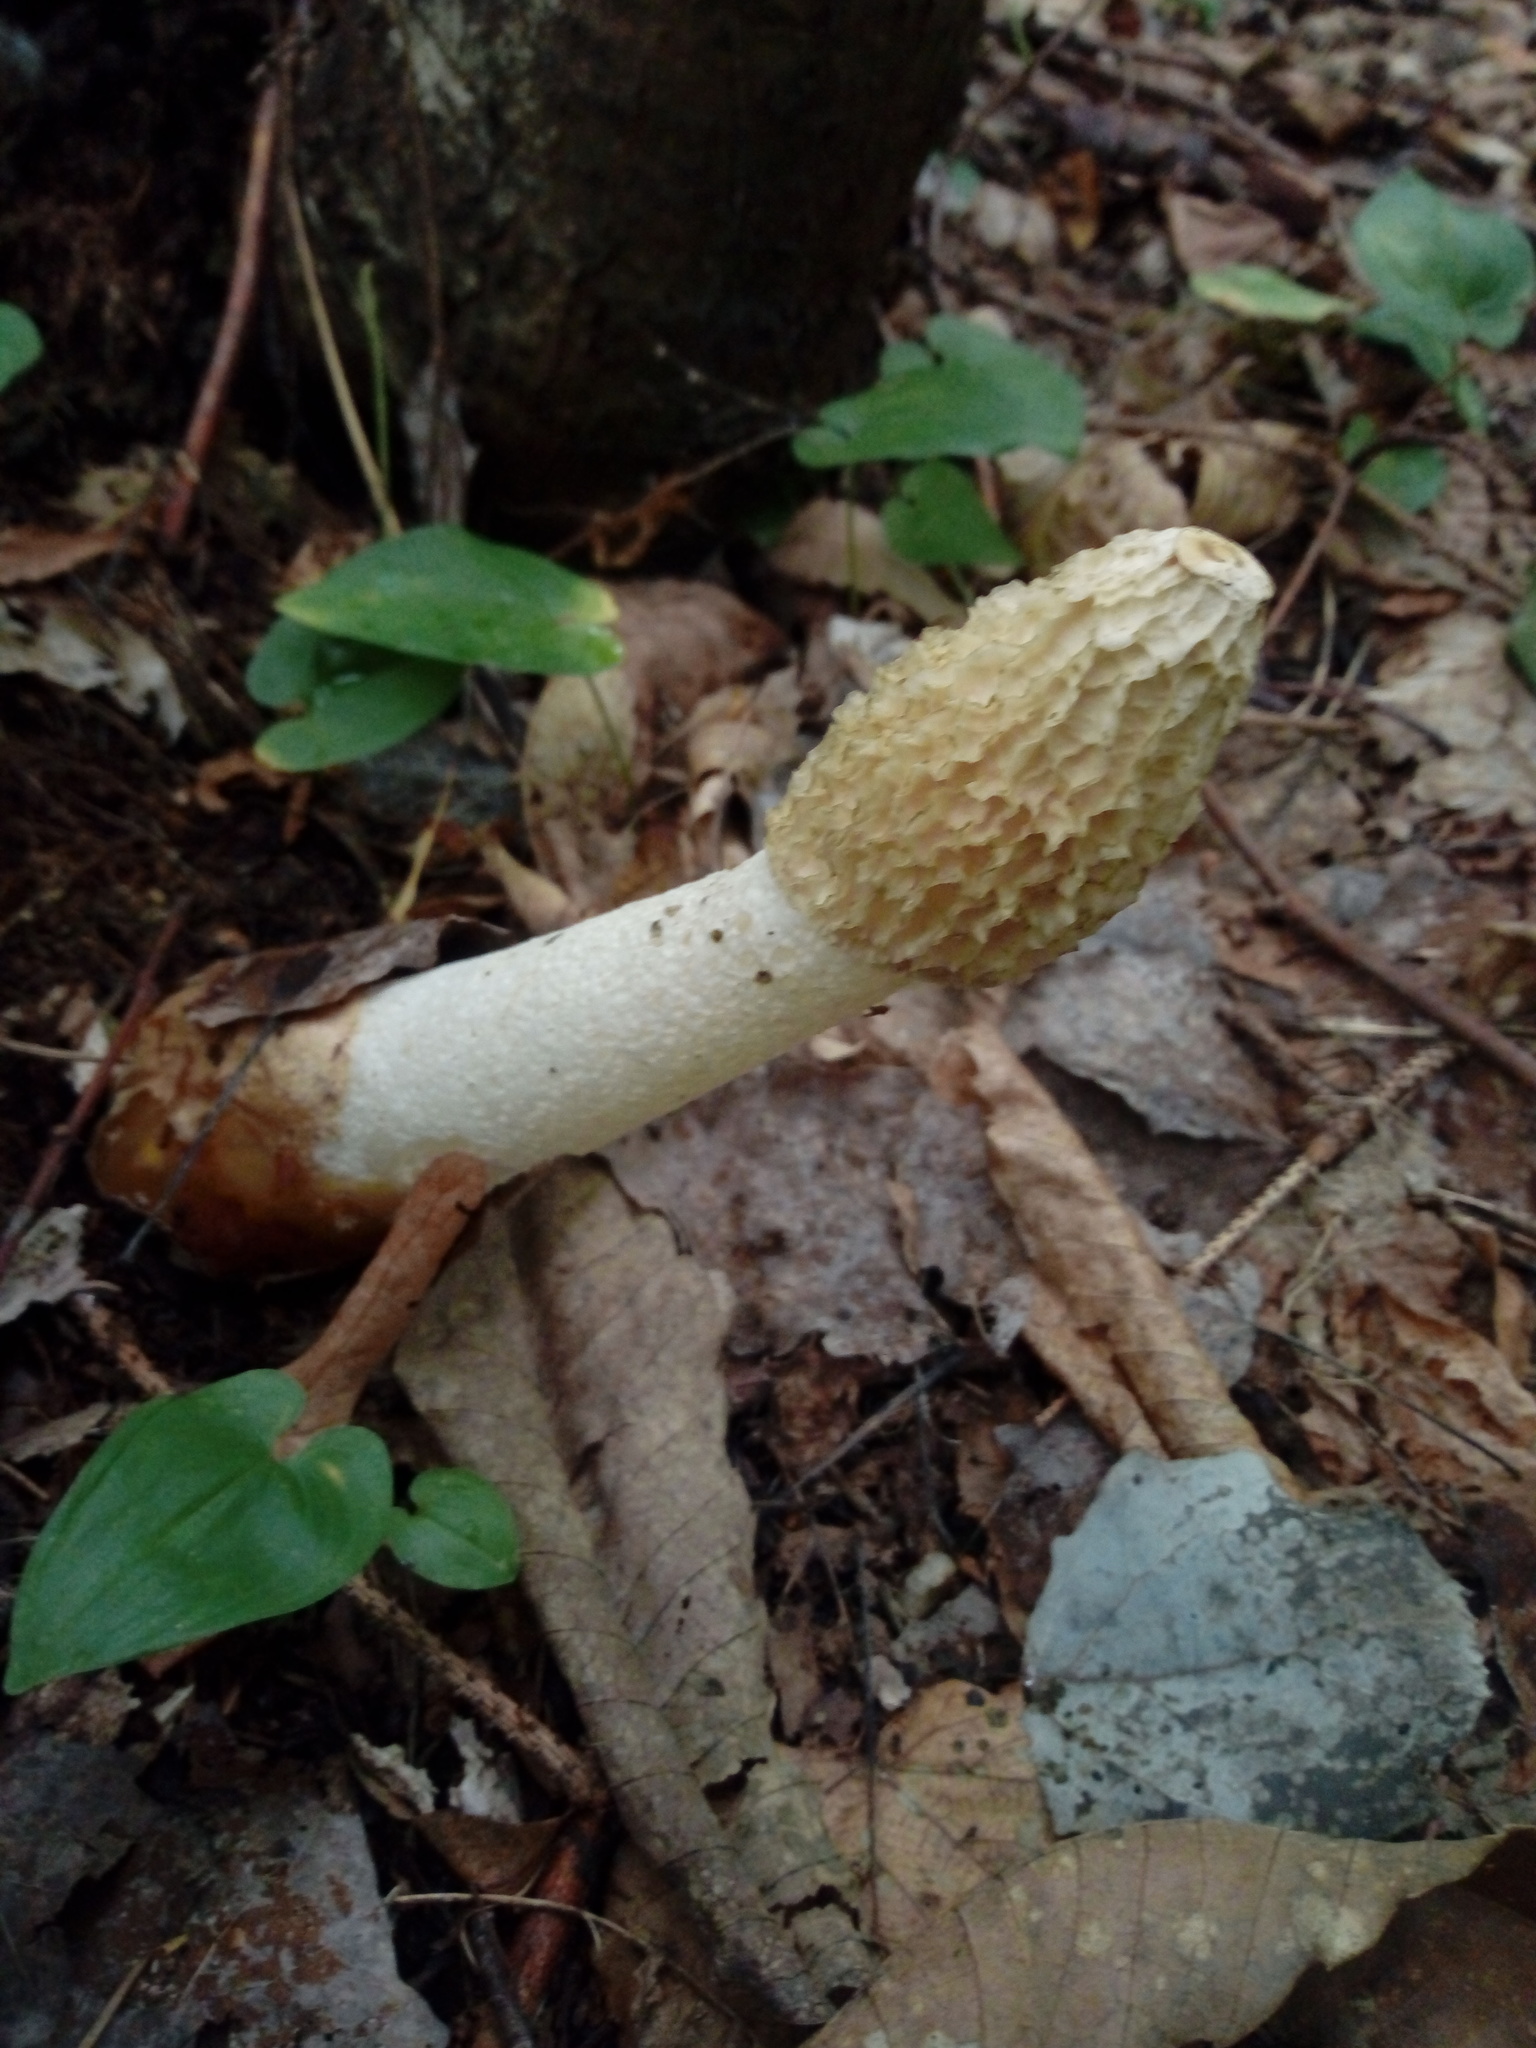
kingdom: Fungi
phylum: Basidiomycota
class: Agaricomycetes
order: Phallales
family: Phallaceae
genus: Phallus
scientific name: Phallus impudicus
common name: Common stinkhorn
